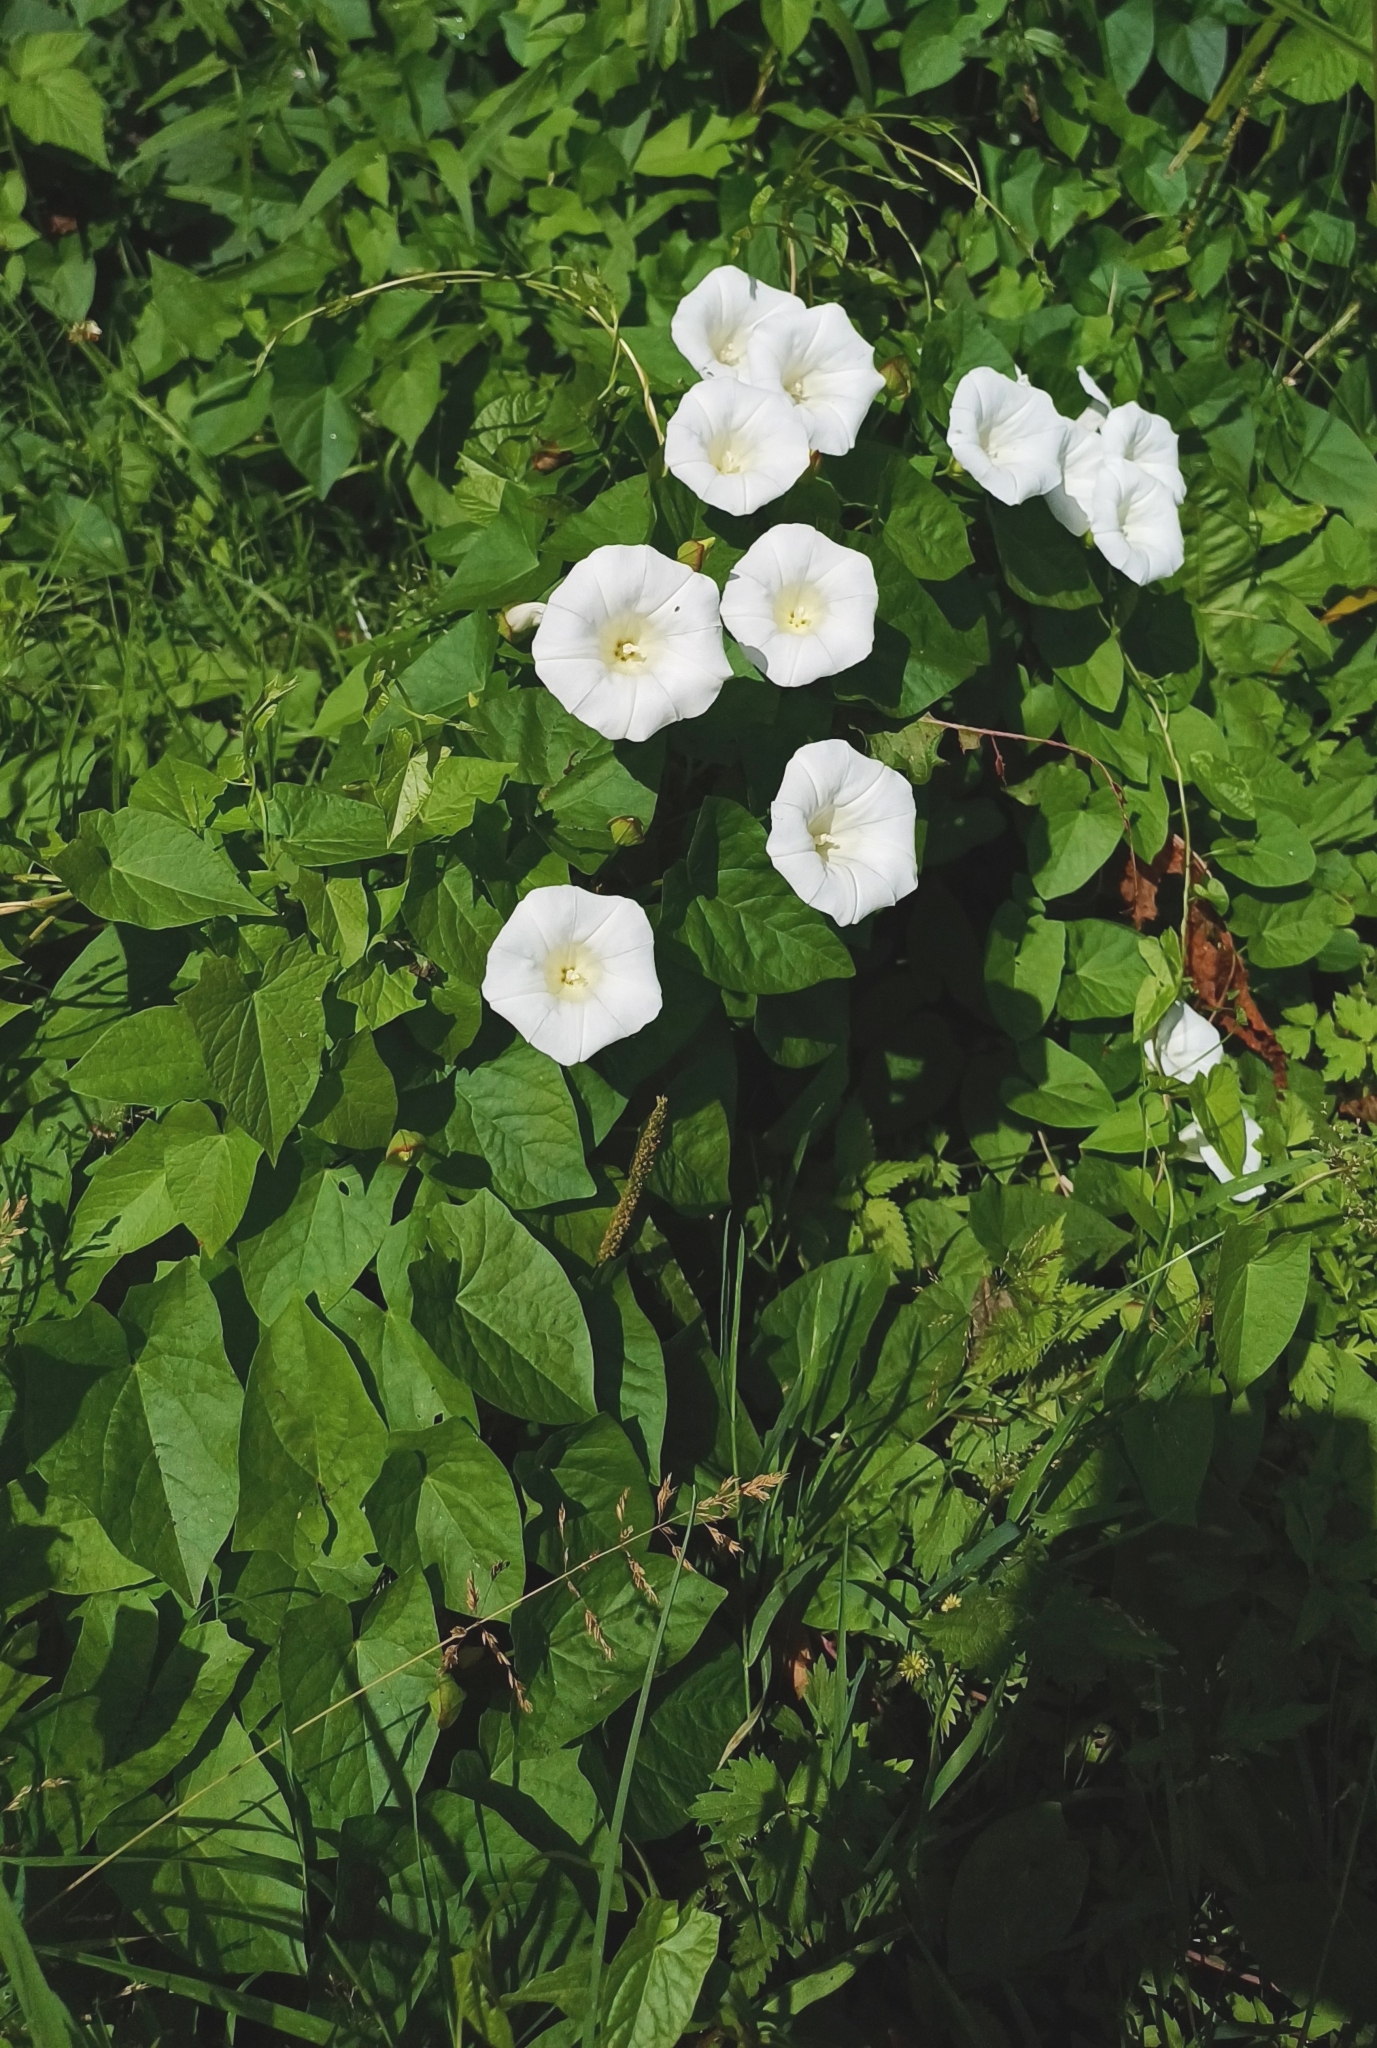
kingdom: Plantae
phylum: Tracheophyta
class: Magnoliopsida
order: Solanales
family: Convolvulaceae
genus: Calystegia
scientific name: Calystegia sepium
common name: Hedge bindweed
